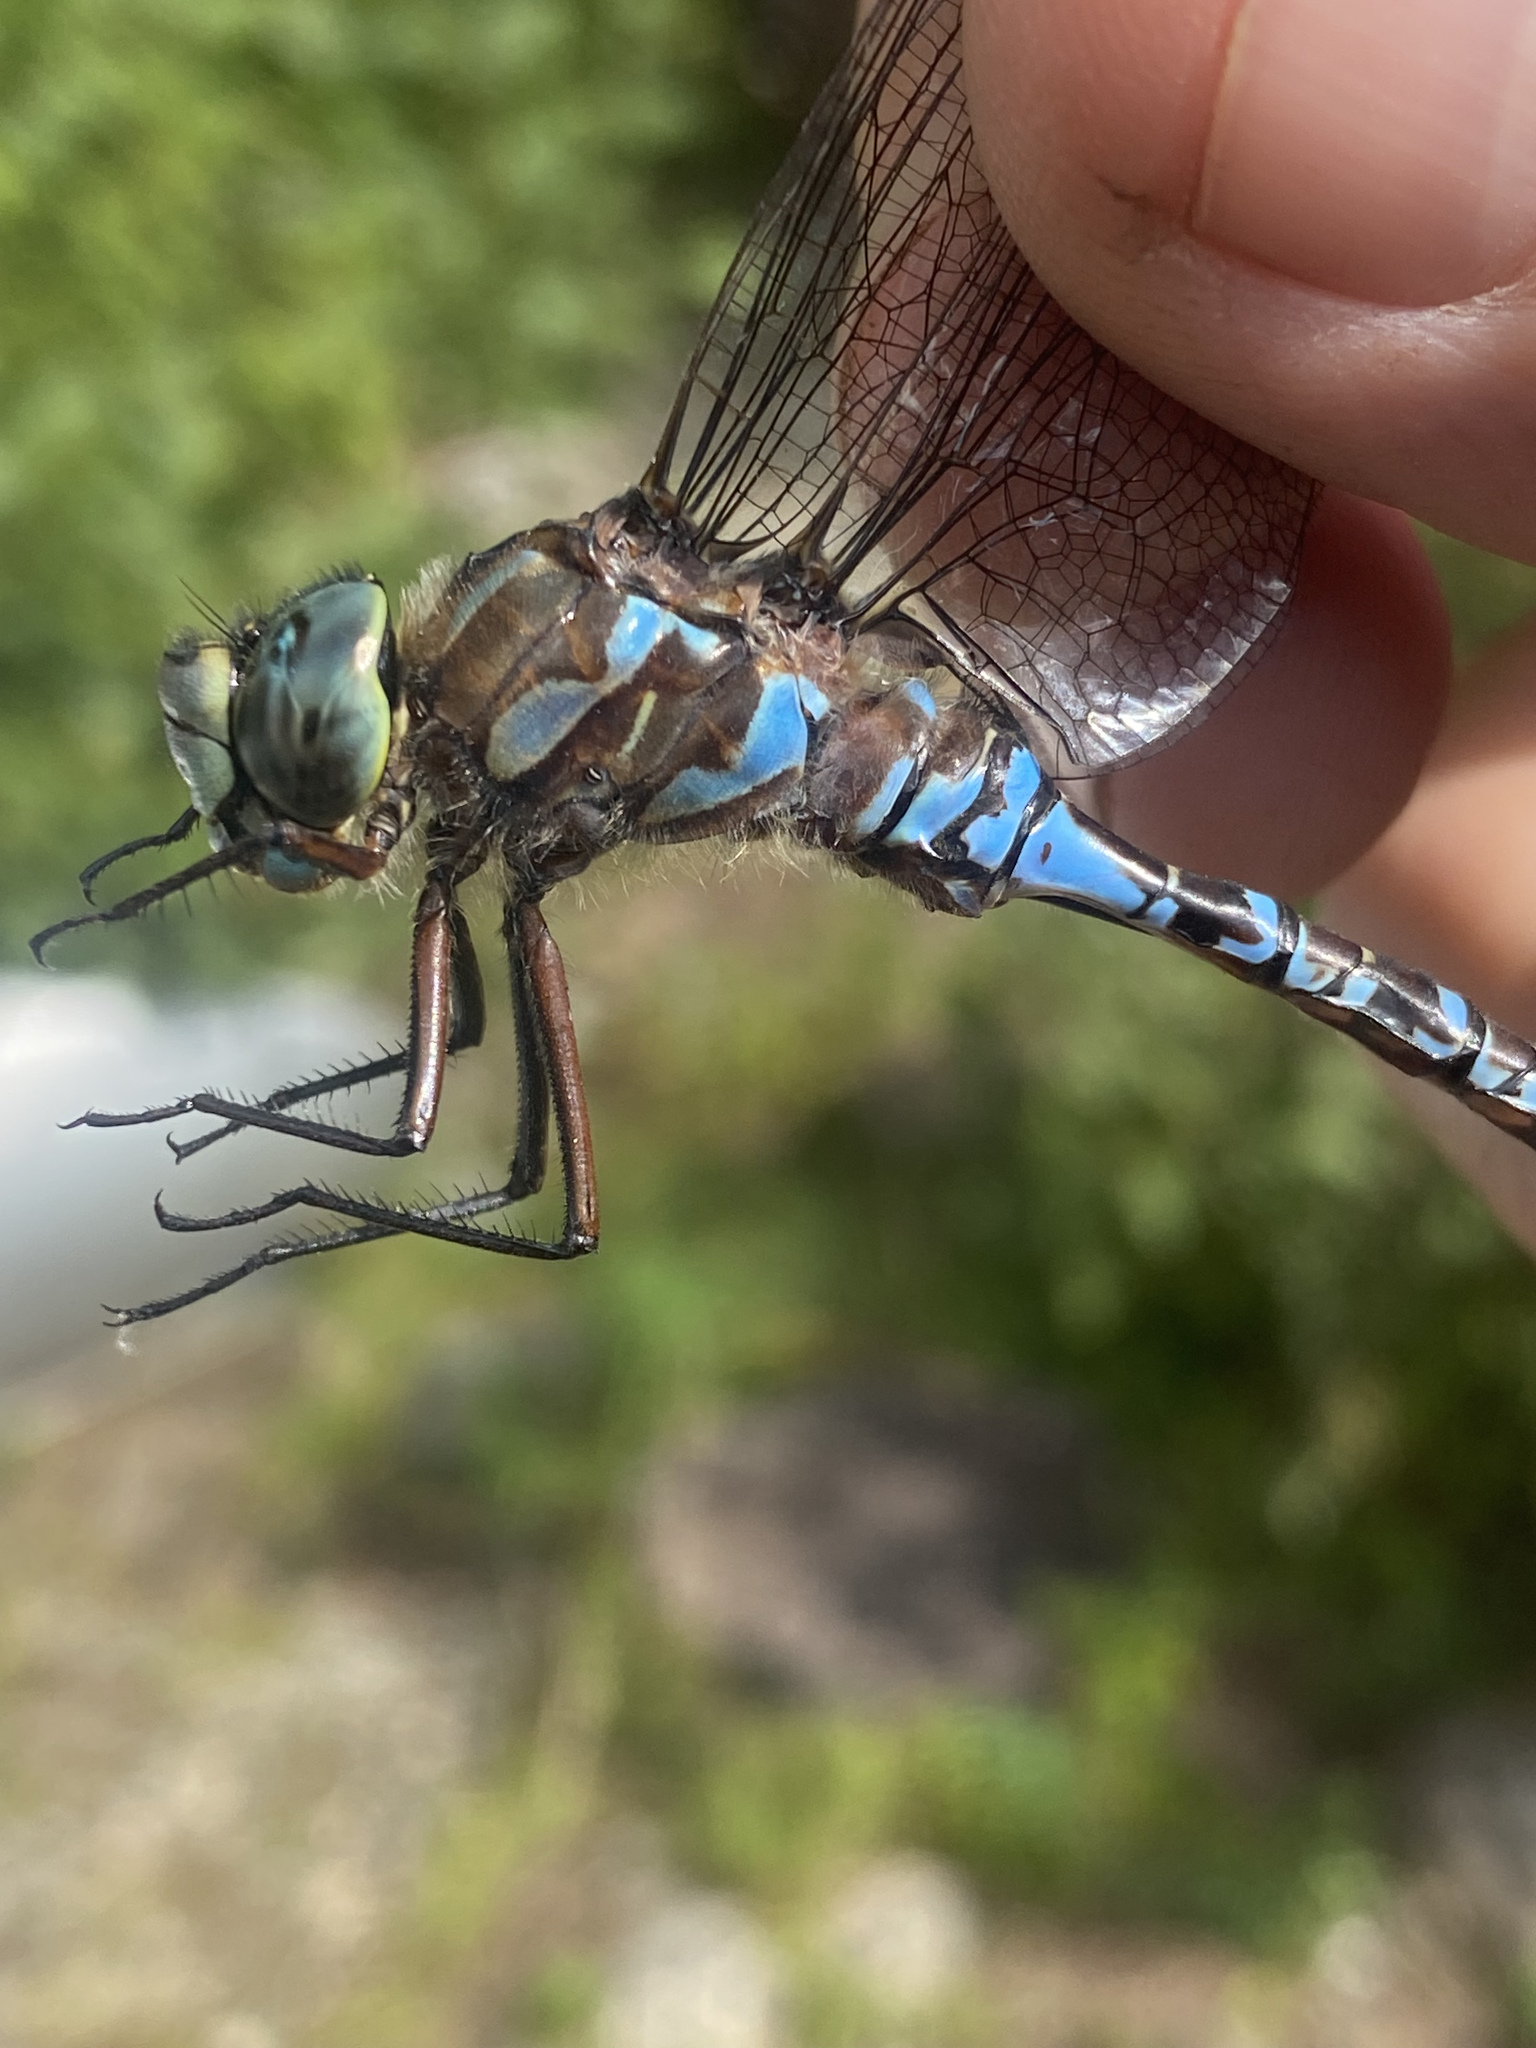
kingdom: Animalia
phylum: Arthropoda
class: Insecta
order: Odonata
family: Aeshnidae
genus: Aeshna
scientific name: Aeshna eremita
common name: Lake darner
